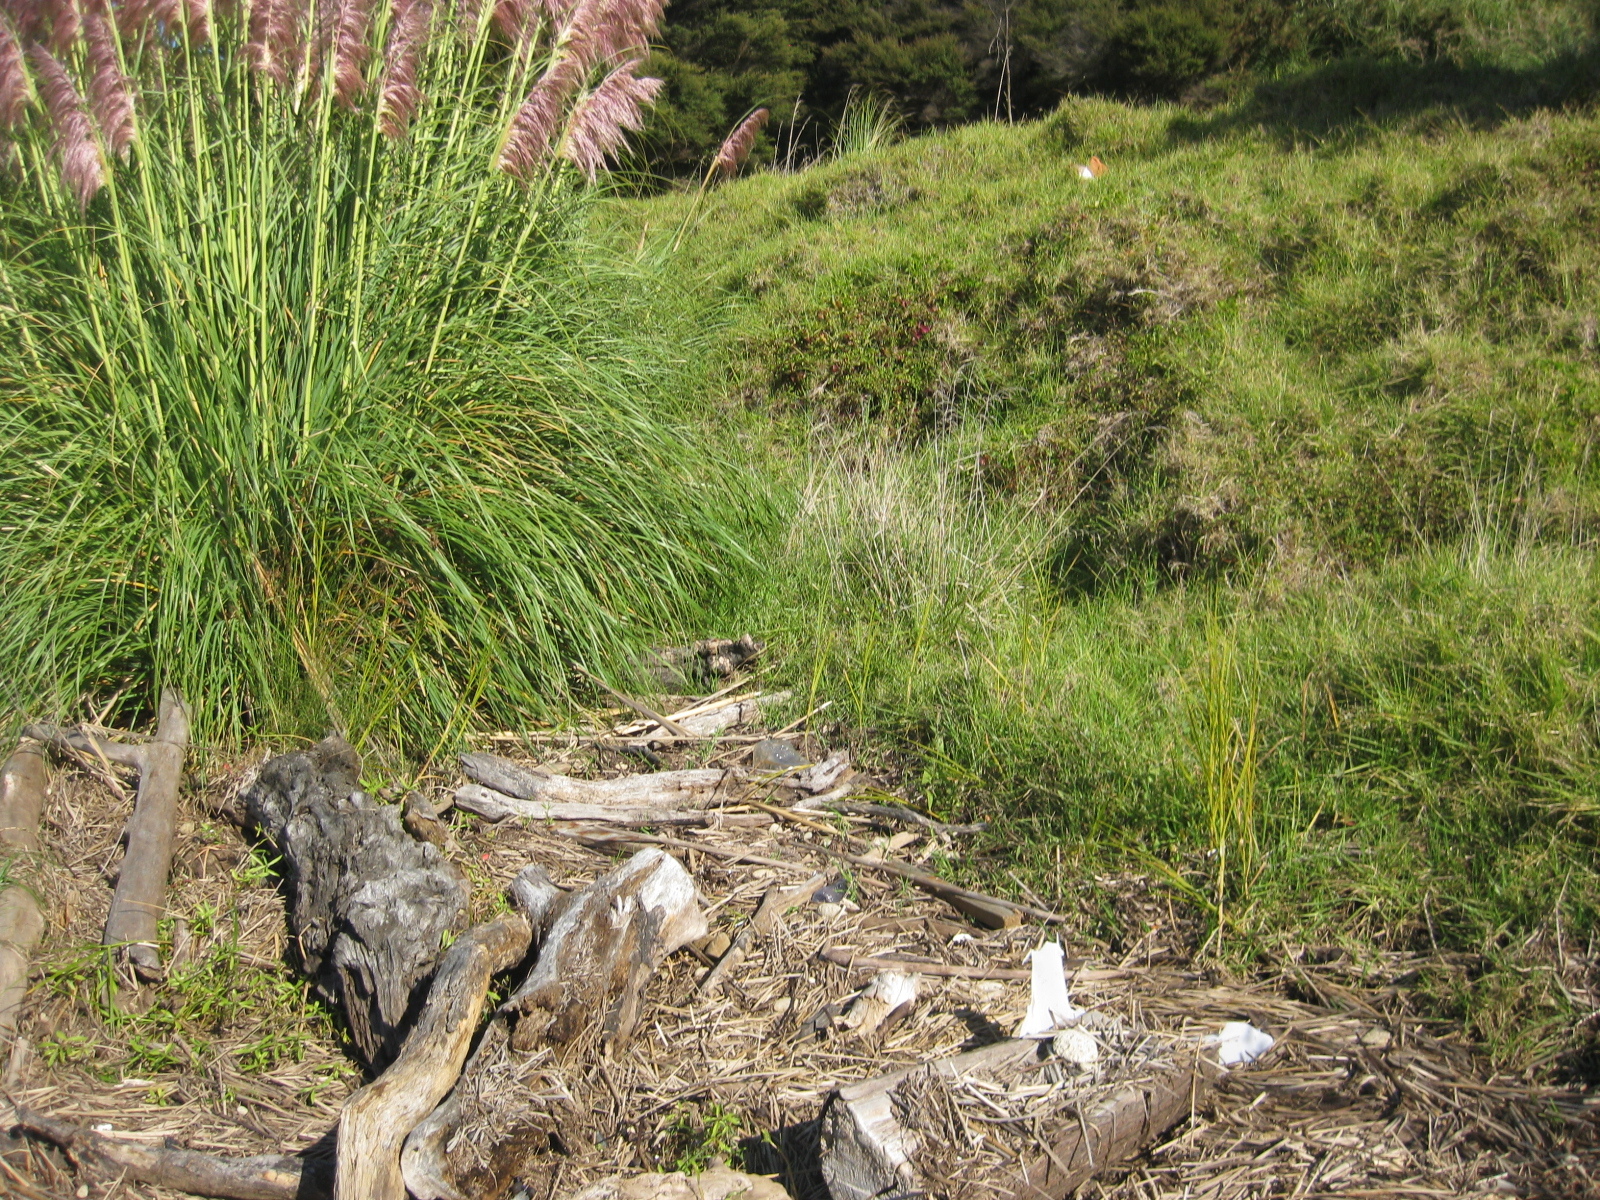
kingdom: Plantae
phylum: Tracheophyta
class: Liliopsida
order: Poales
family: Poaceae
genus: Cortaderia
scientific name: Cortaderia selloana
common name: Uruguayan pampas grass
